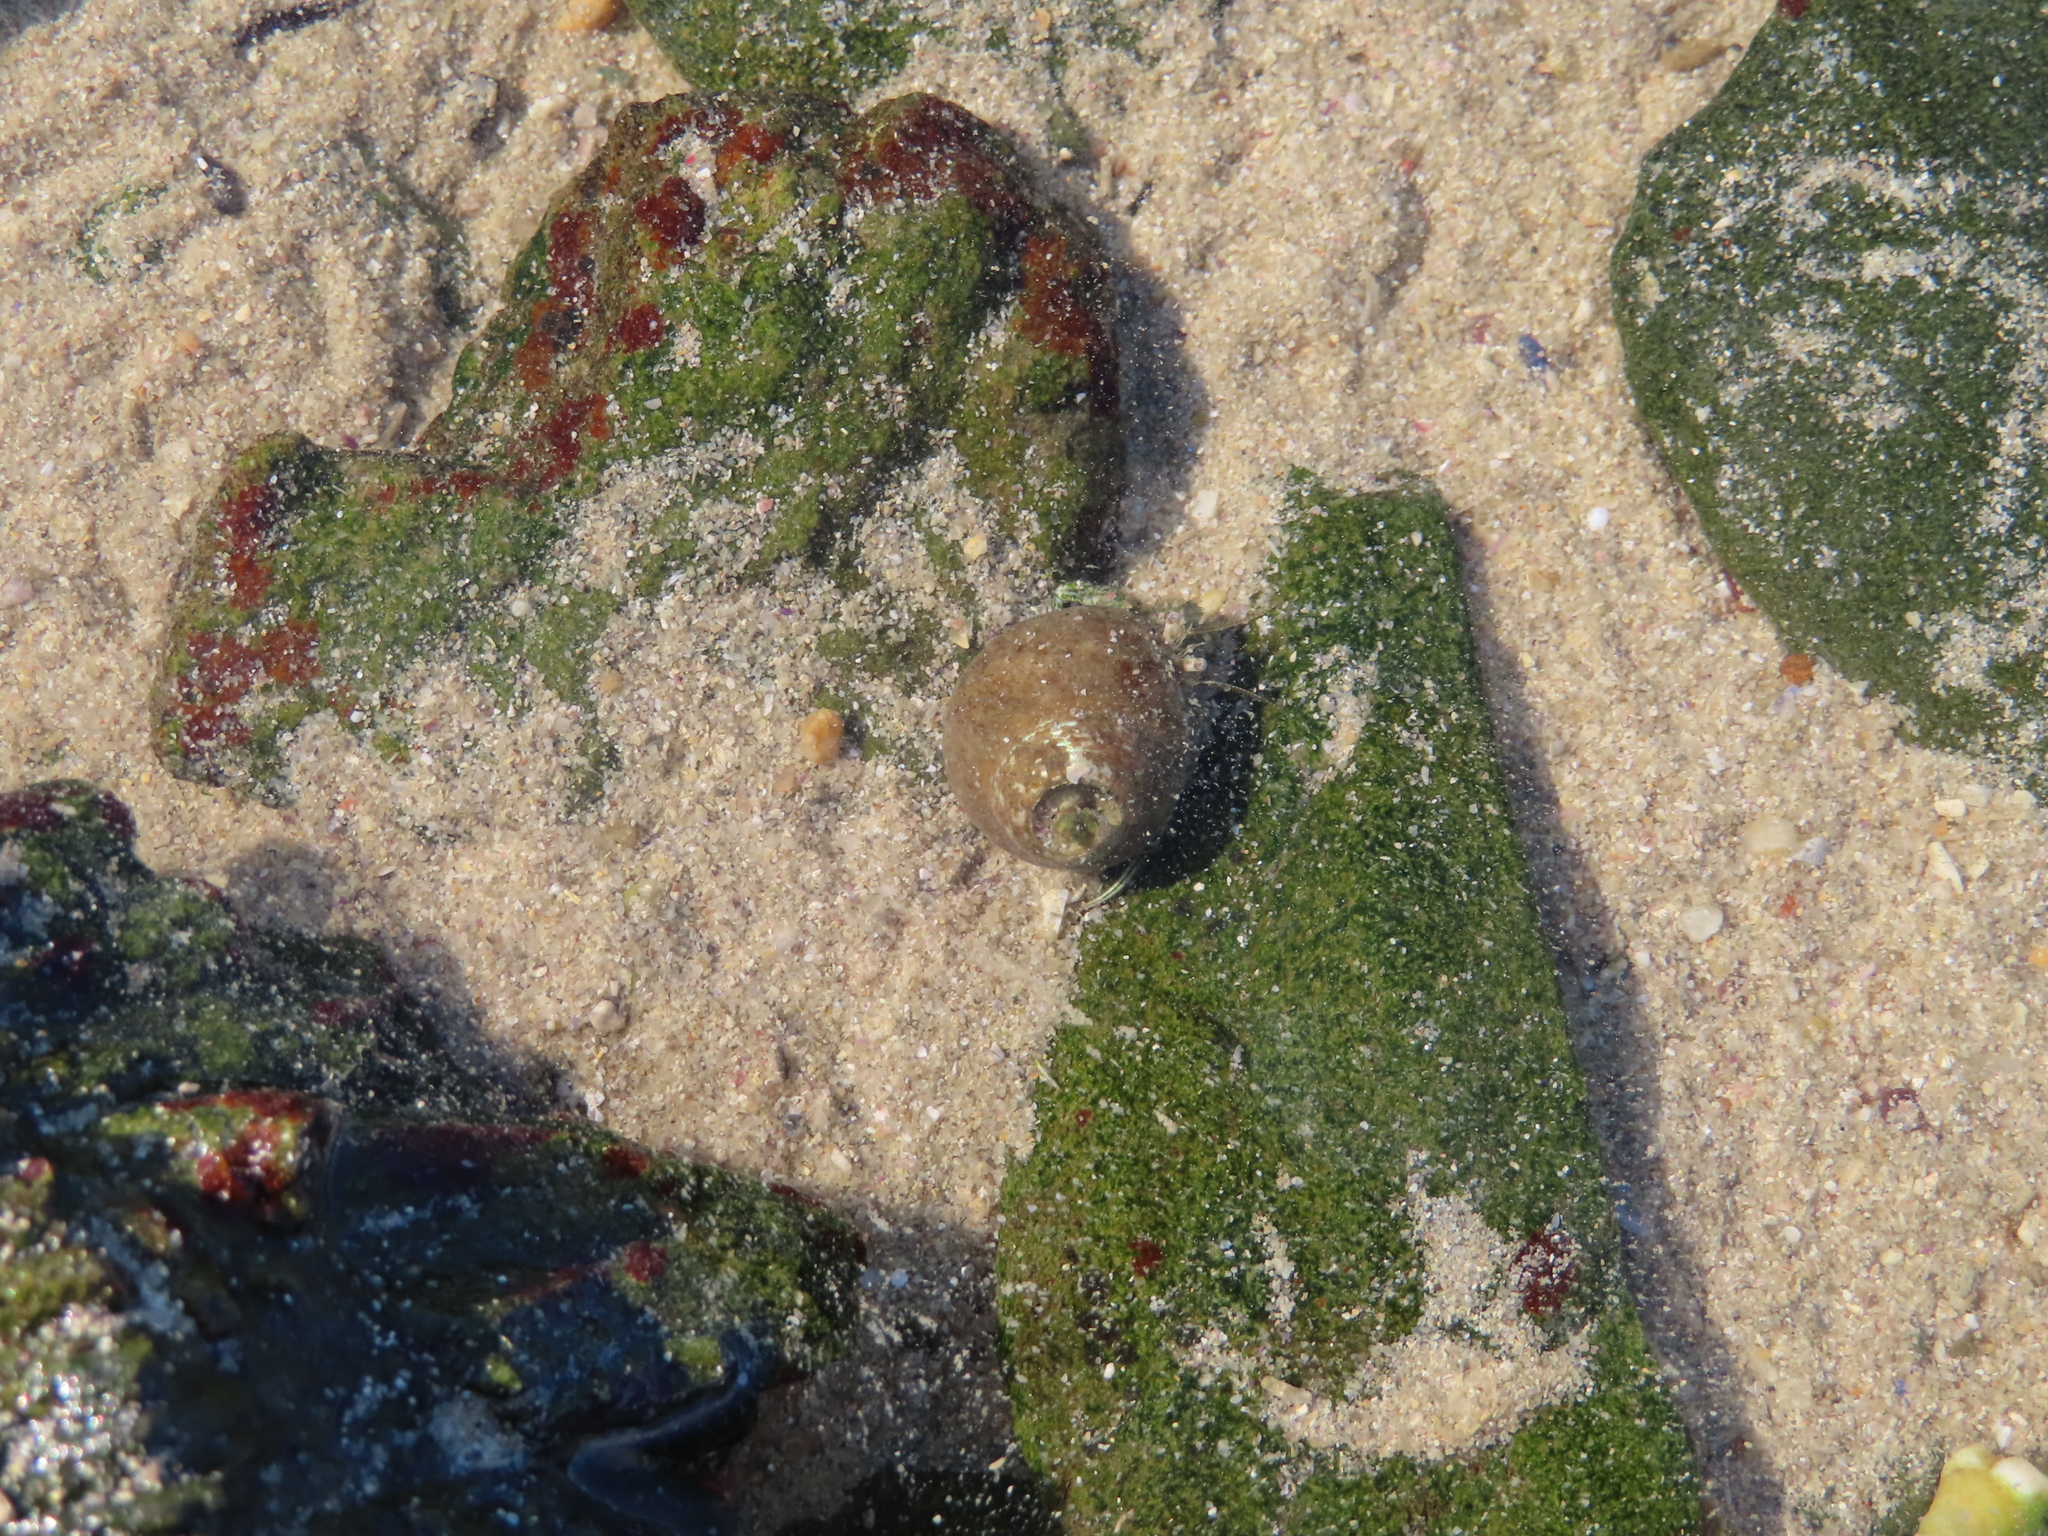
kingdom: Animalia
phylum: Arthropoda
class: Malacostraca
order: Decapoda
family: Diogenidae
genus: Diogenes
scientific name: Diogenes brevirostris
